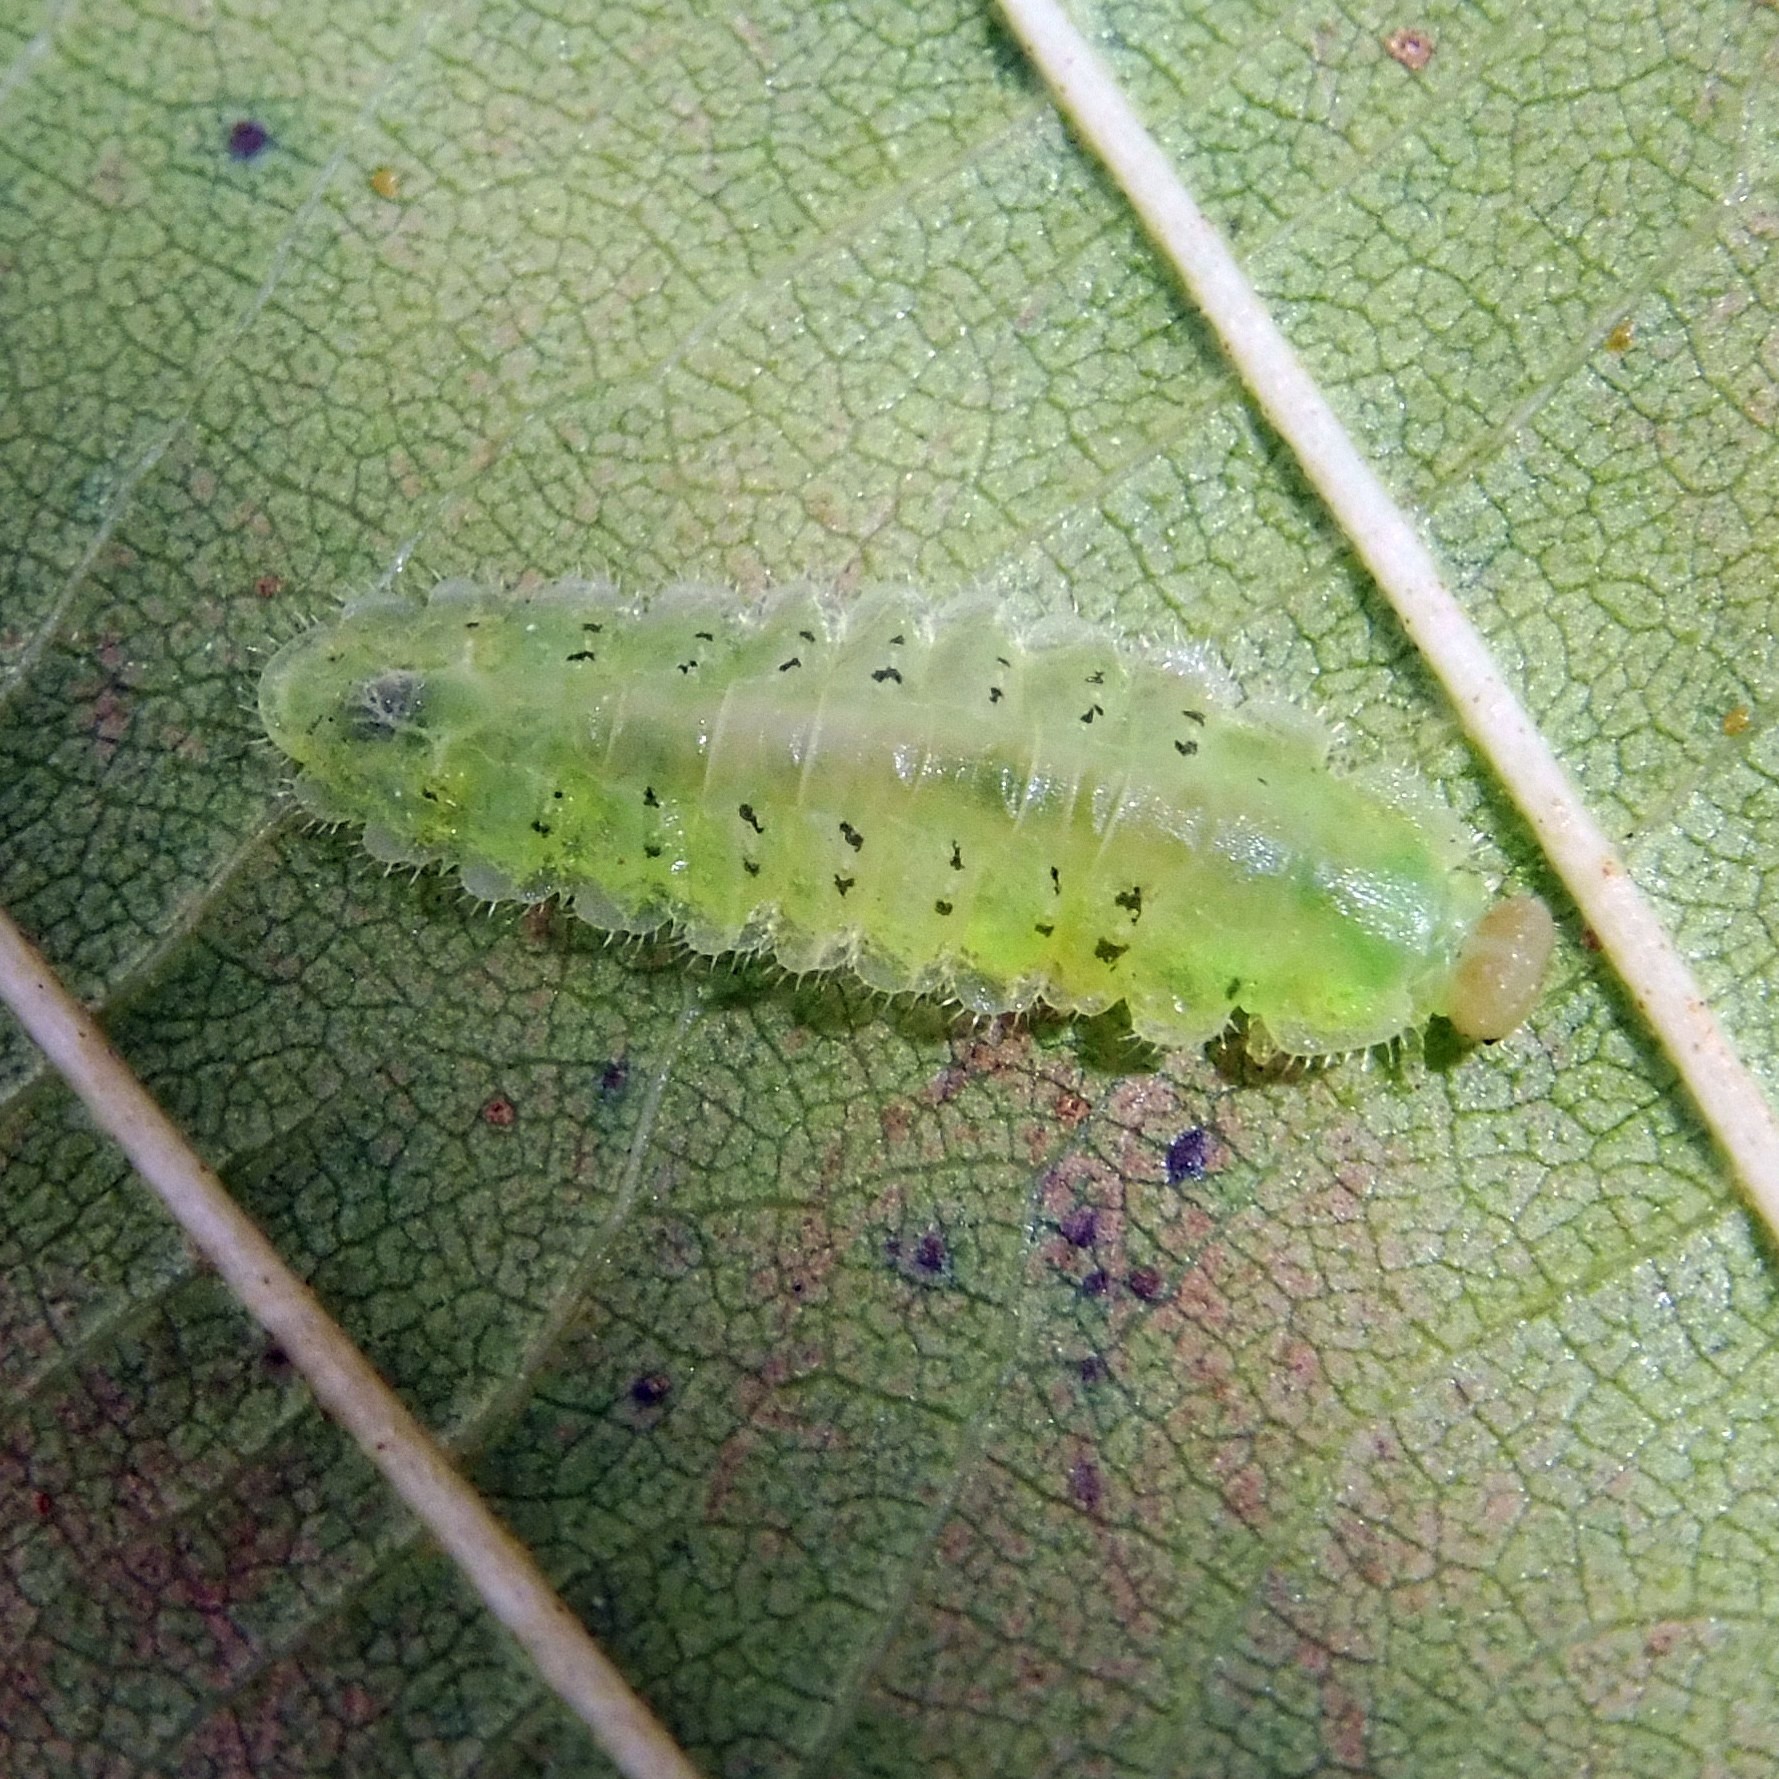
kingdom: Animalia
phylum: Arthropoda
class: Insecta
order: Hymenoptera
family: Tenthredinidae
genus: Platycampus
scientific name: Platycampus luridiventris
